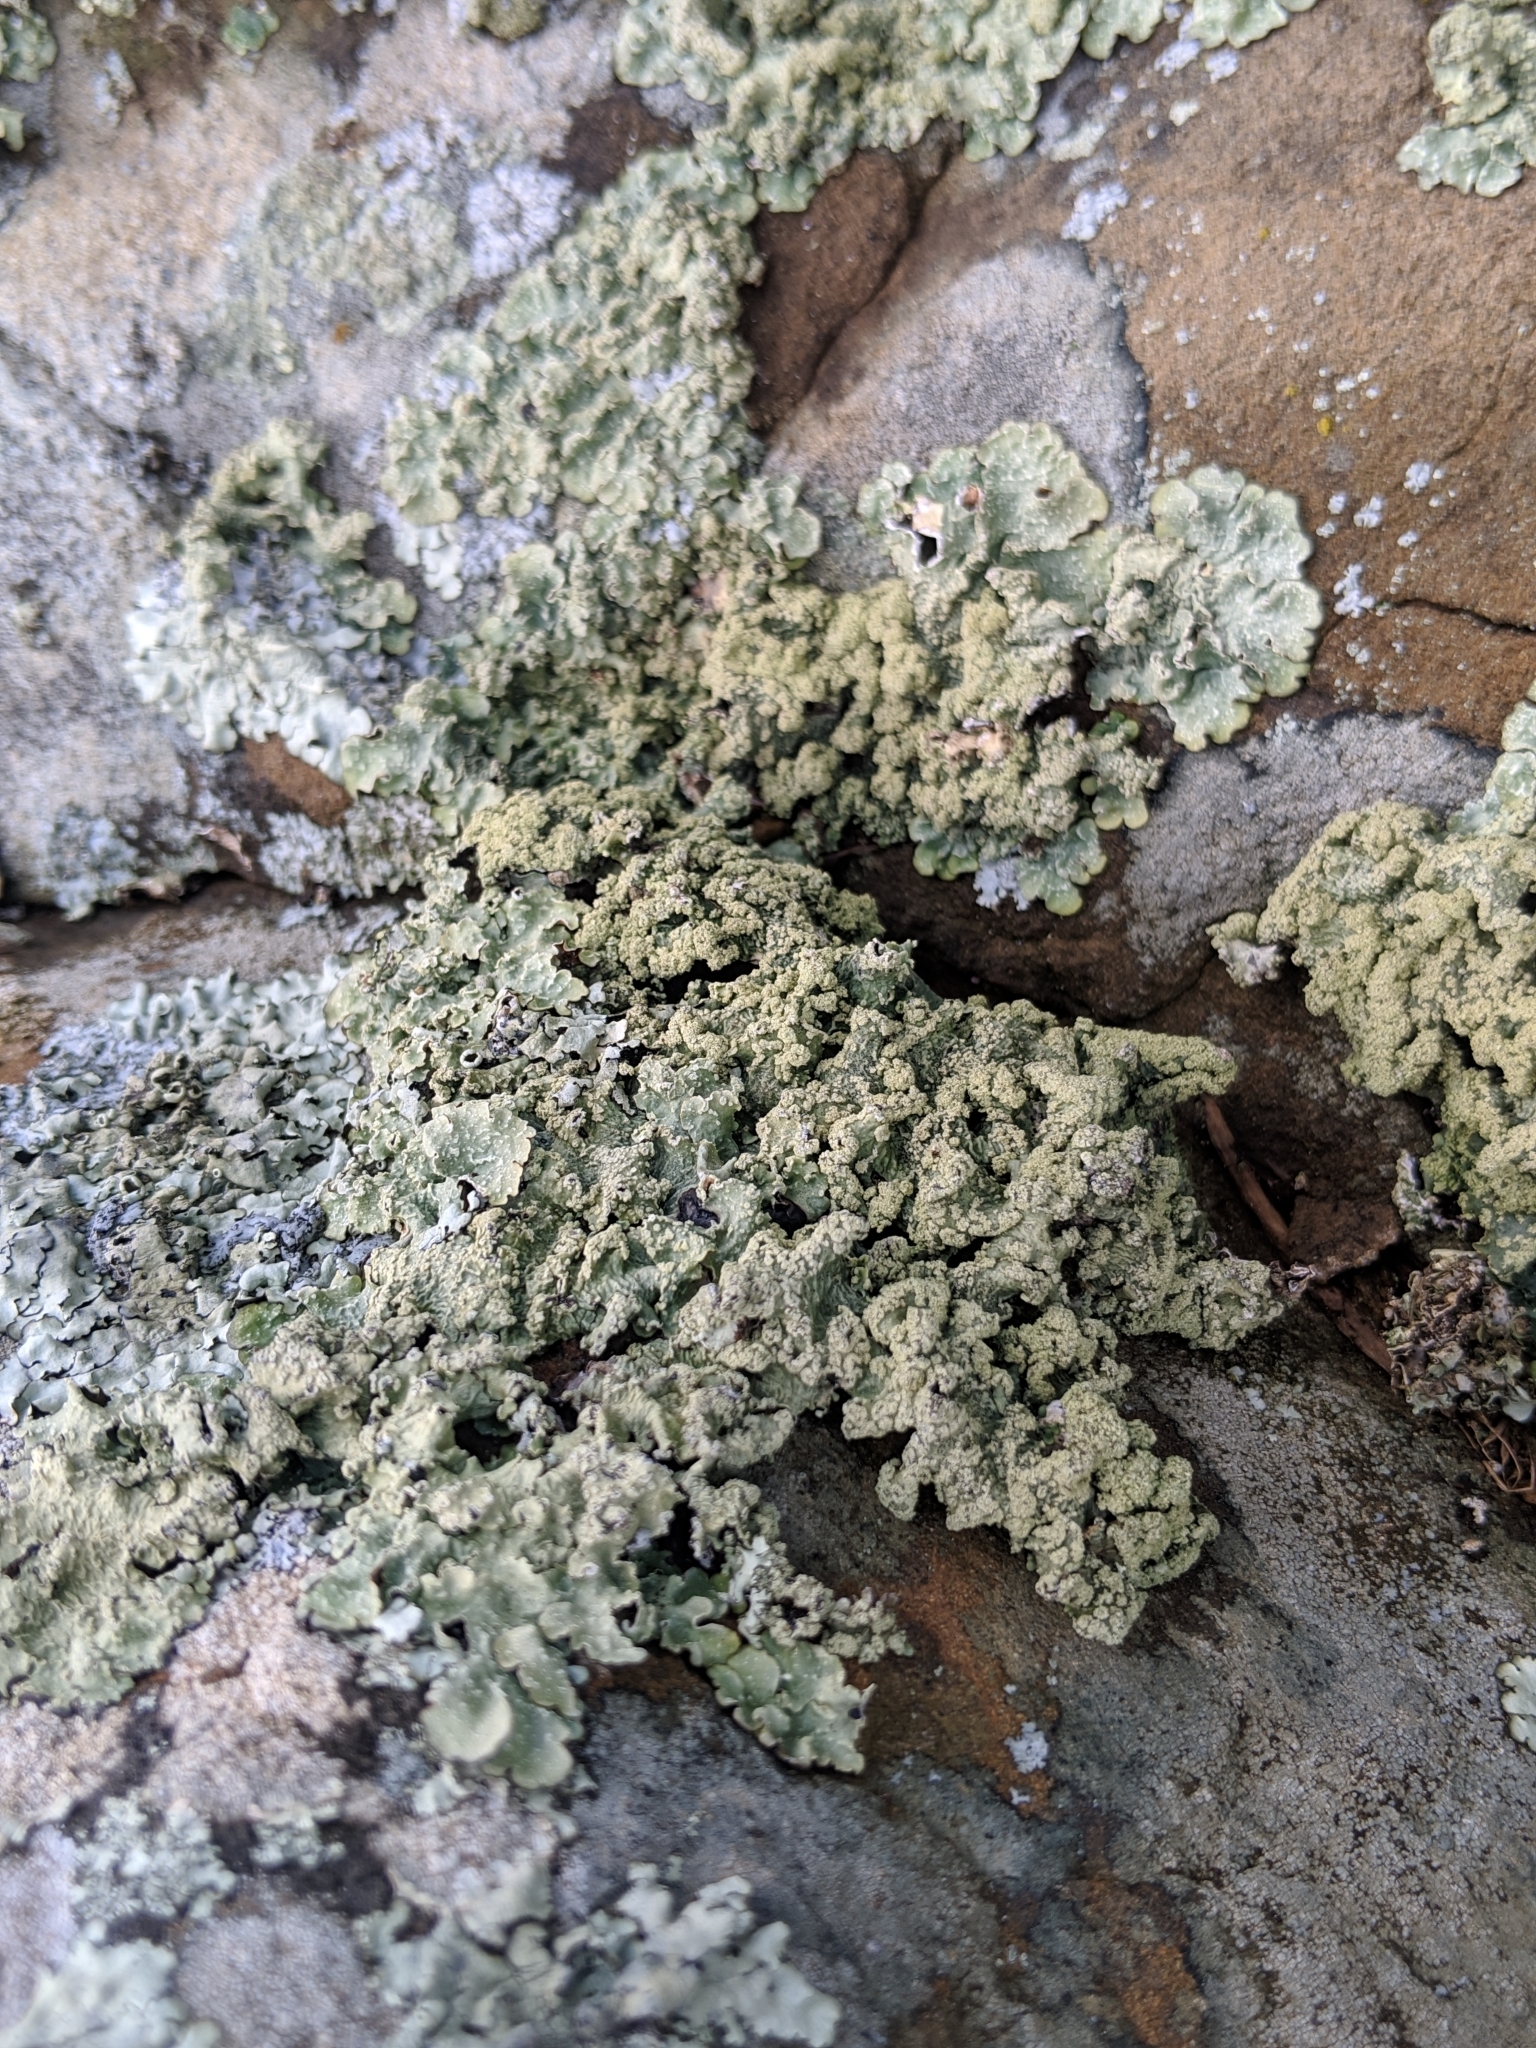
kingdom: Fungi
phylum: Ascomycota
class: Lecanoromycetes
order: Lecanorales
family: Parmeliaceae
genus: Flavopunctelia
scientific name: Flavopunctelia flaventior
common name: Speckled greenshield
